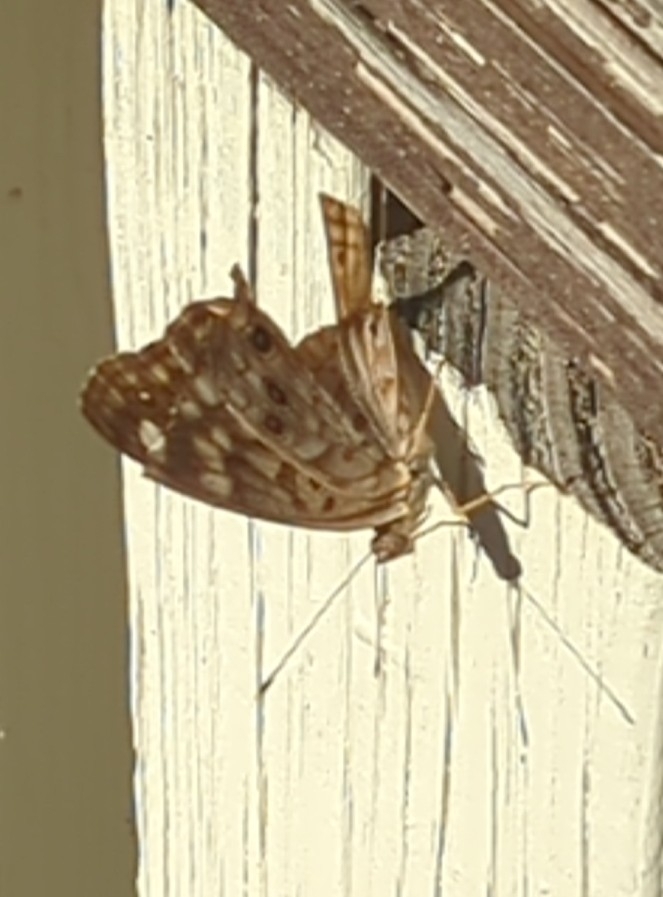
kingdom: Animalia
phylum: Arthropoda
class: Insecta
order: Lepidoptera
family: Nymphalidae
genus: Asterocampa
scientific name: Asterocampa celtis
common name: Hackberry emperor
